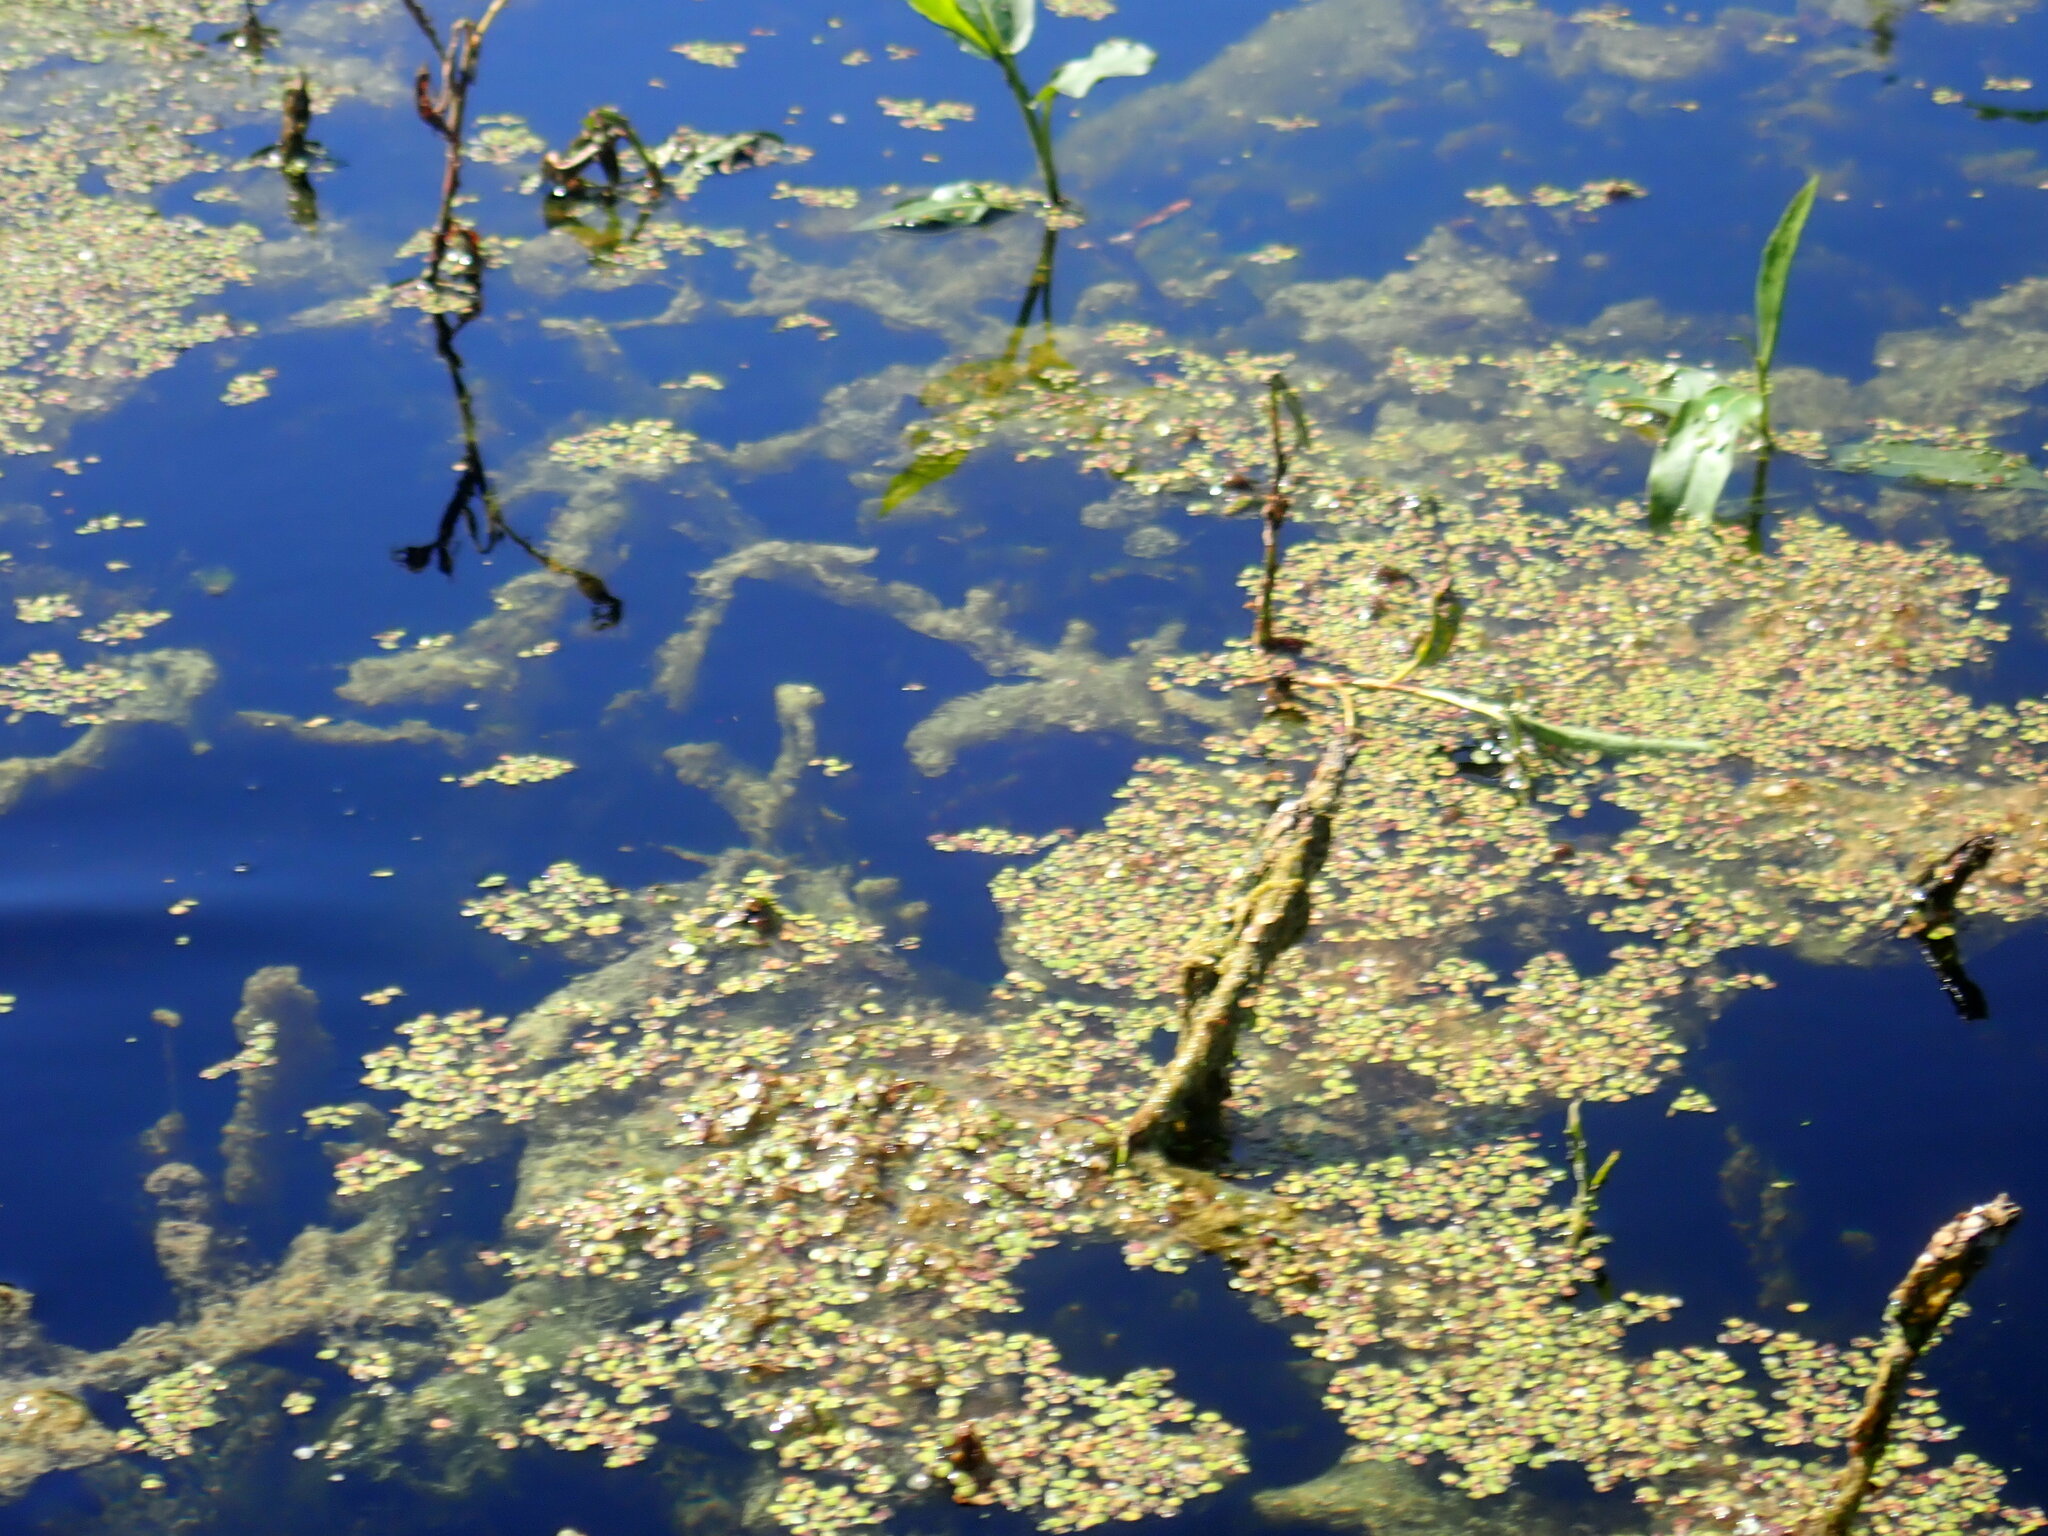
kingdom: Plantae
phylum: Tracheophyta
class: Liliopsida
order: Alismatales
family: Araceae
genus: Spirodela
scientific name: Spirodela polyrhiza
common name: Great duckweed
